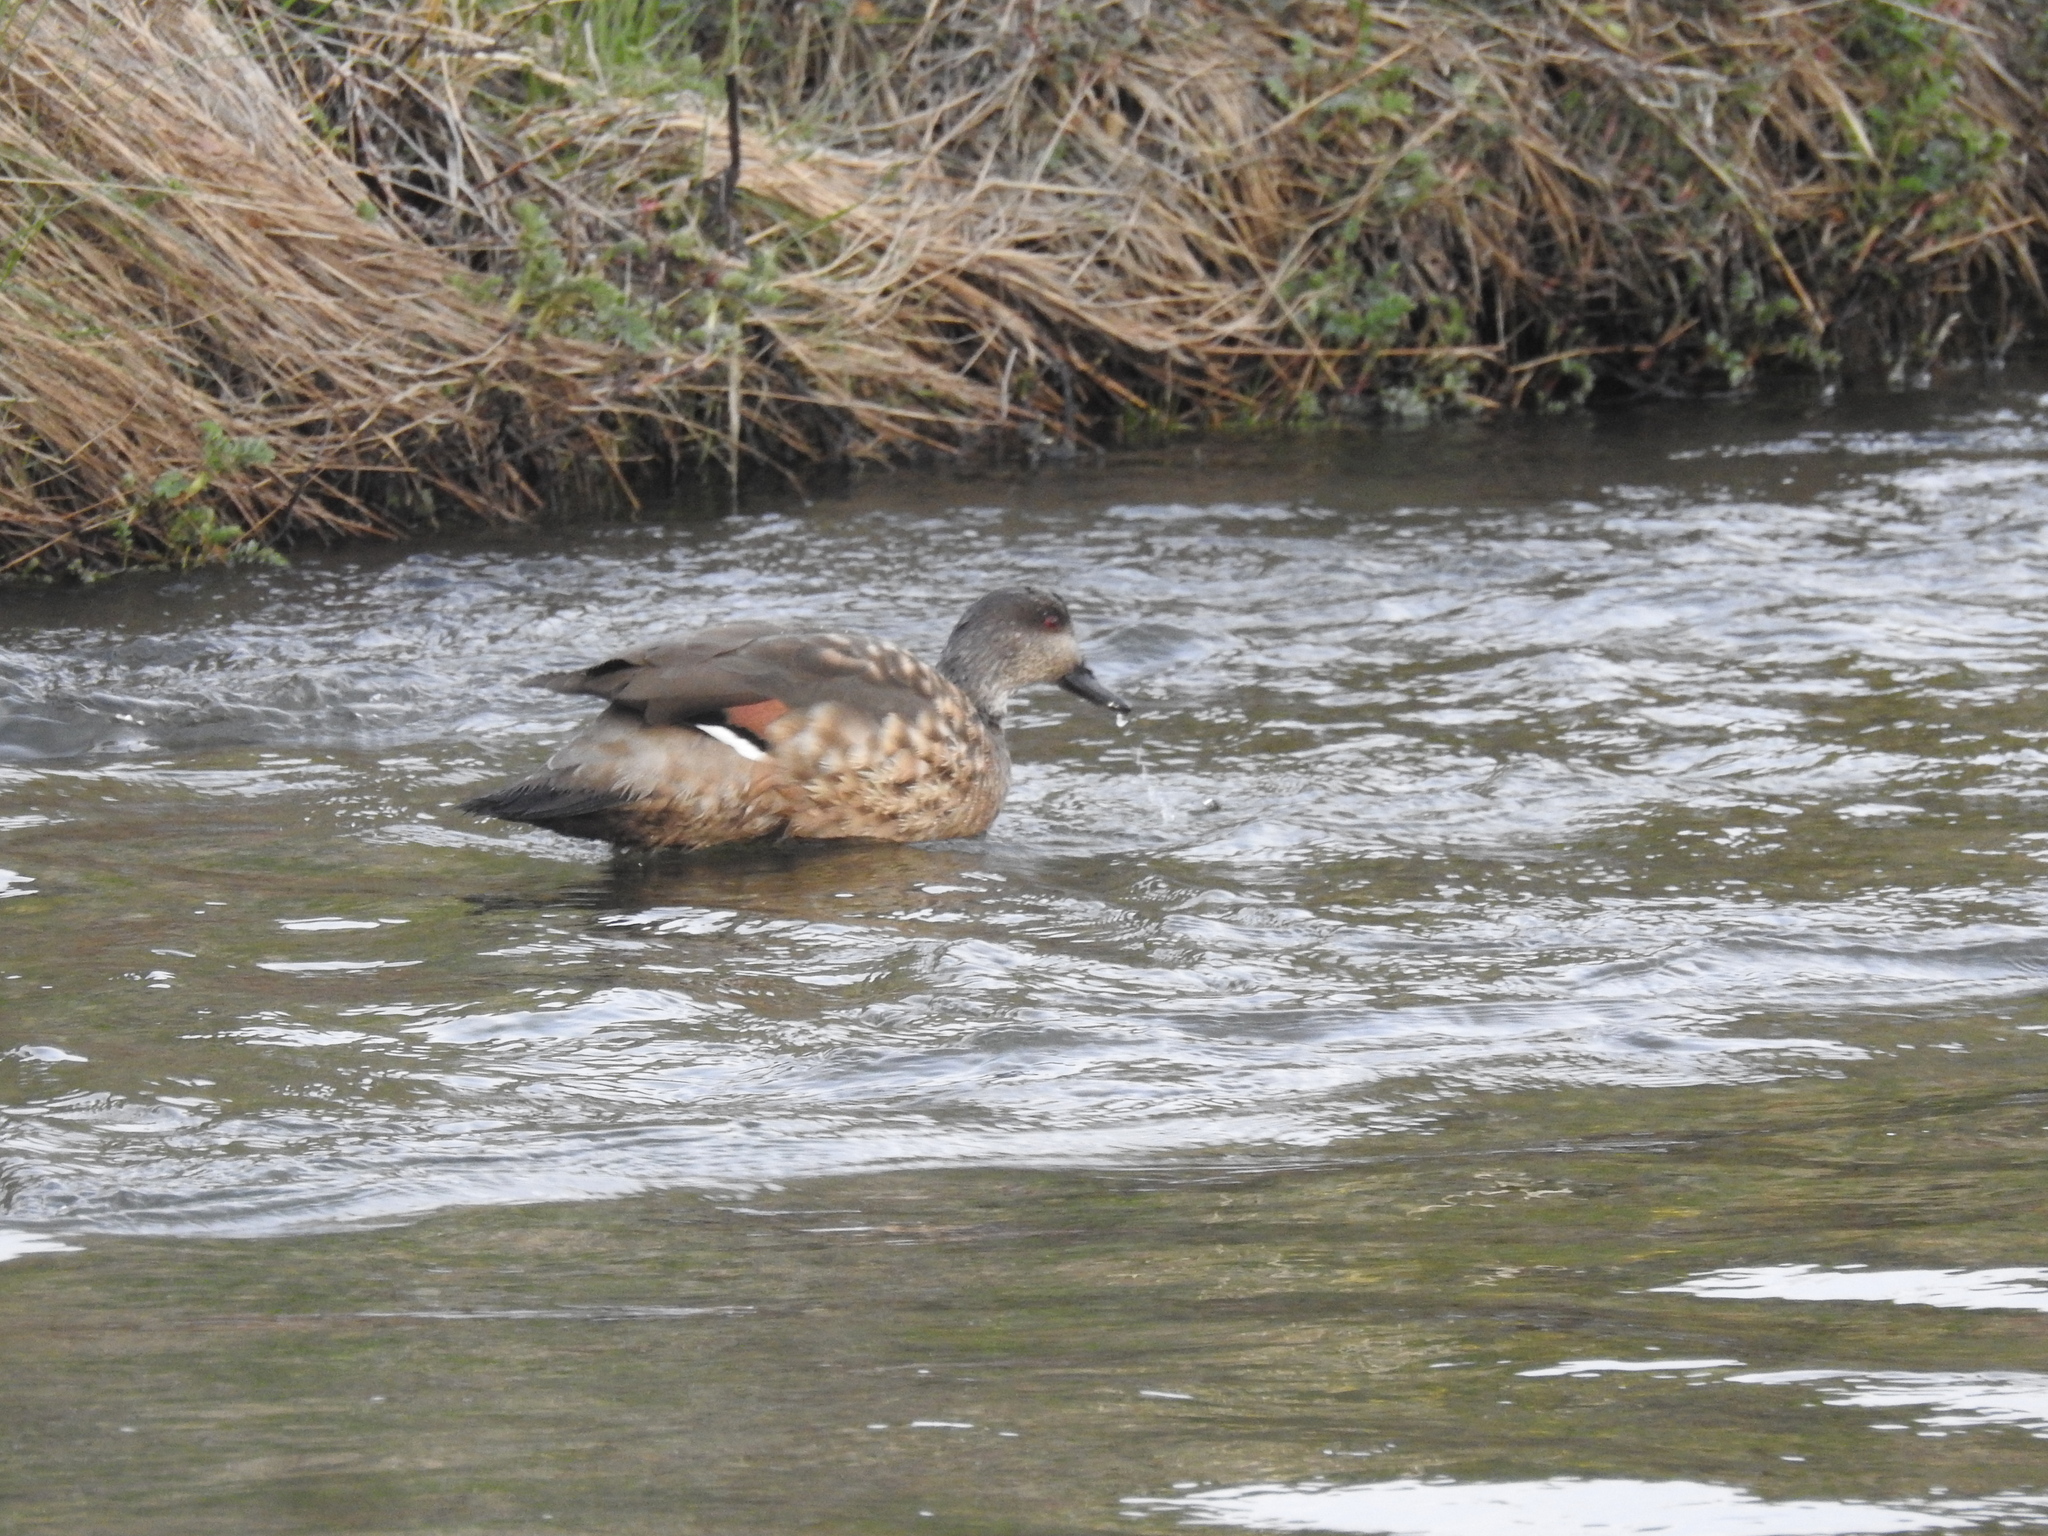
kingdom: Animalia
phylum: Chordata
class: Aves
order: Anseriformes
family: Anatidae
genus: Lophonetta
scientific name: Lophonetta specularioides
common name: Crested duck
